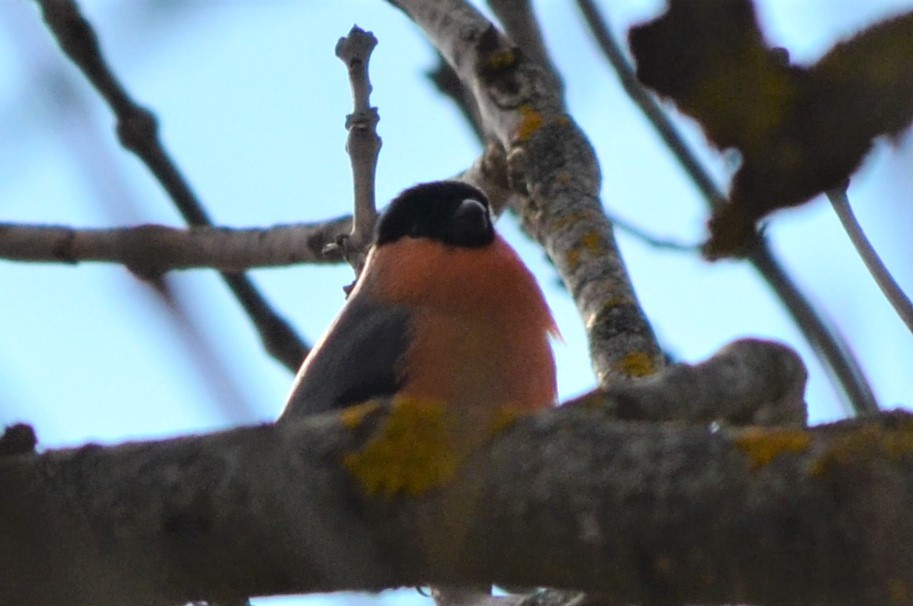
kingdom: Animalia
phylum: Chordata
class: Aves
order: Passeriformes
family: Fringillidae
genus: Pyrrhula
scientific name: Pyrrhula pyrrhula
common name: Eurasian bullfinch
